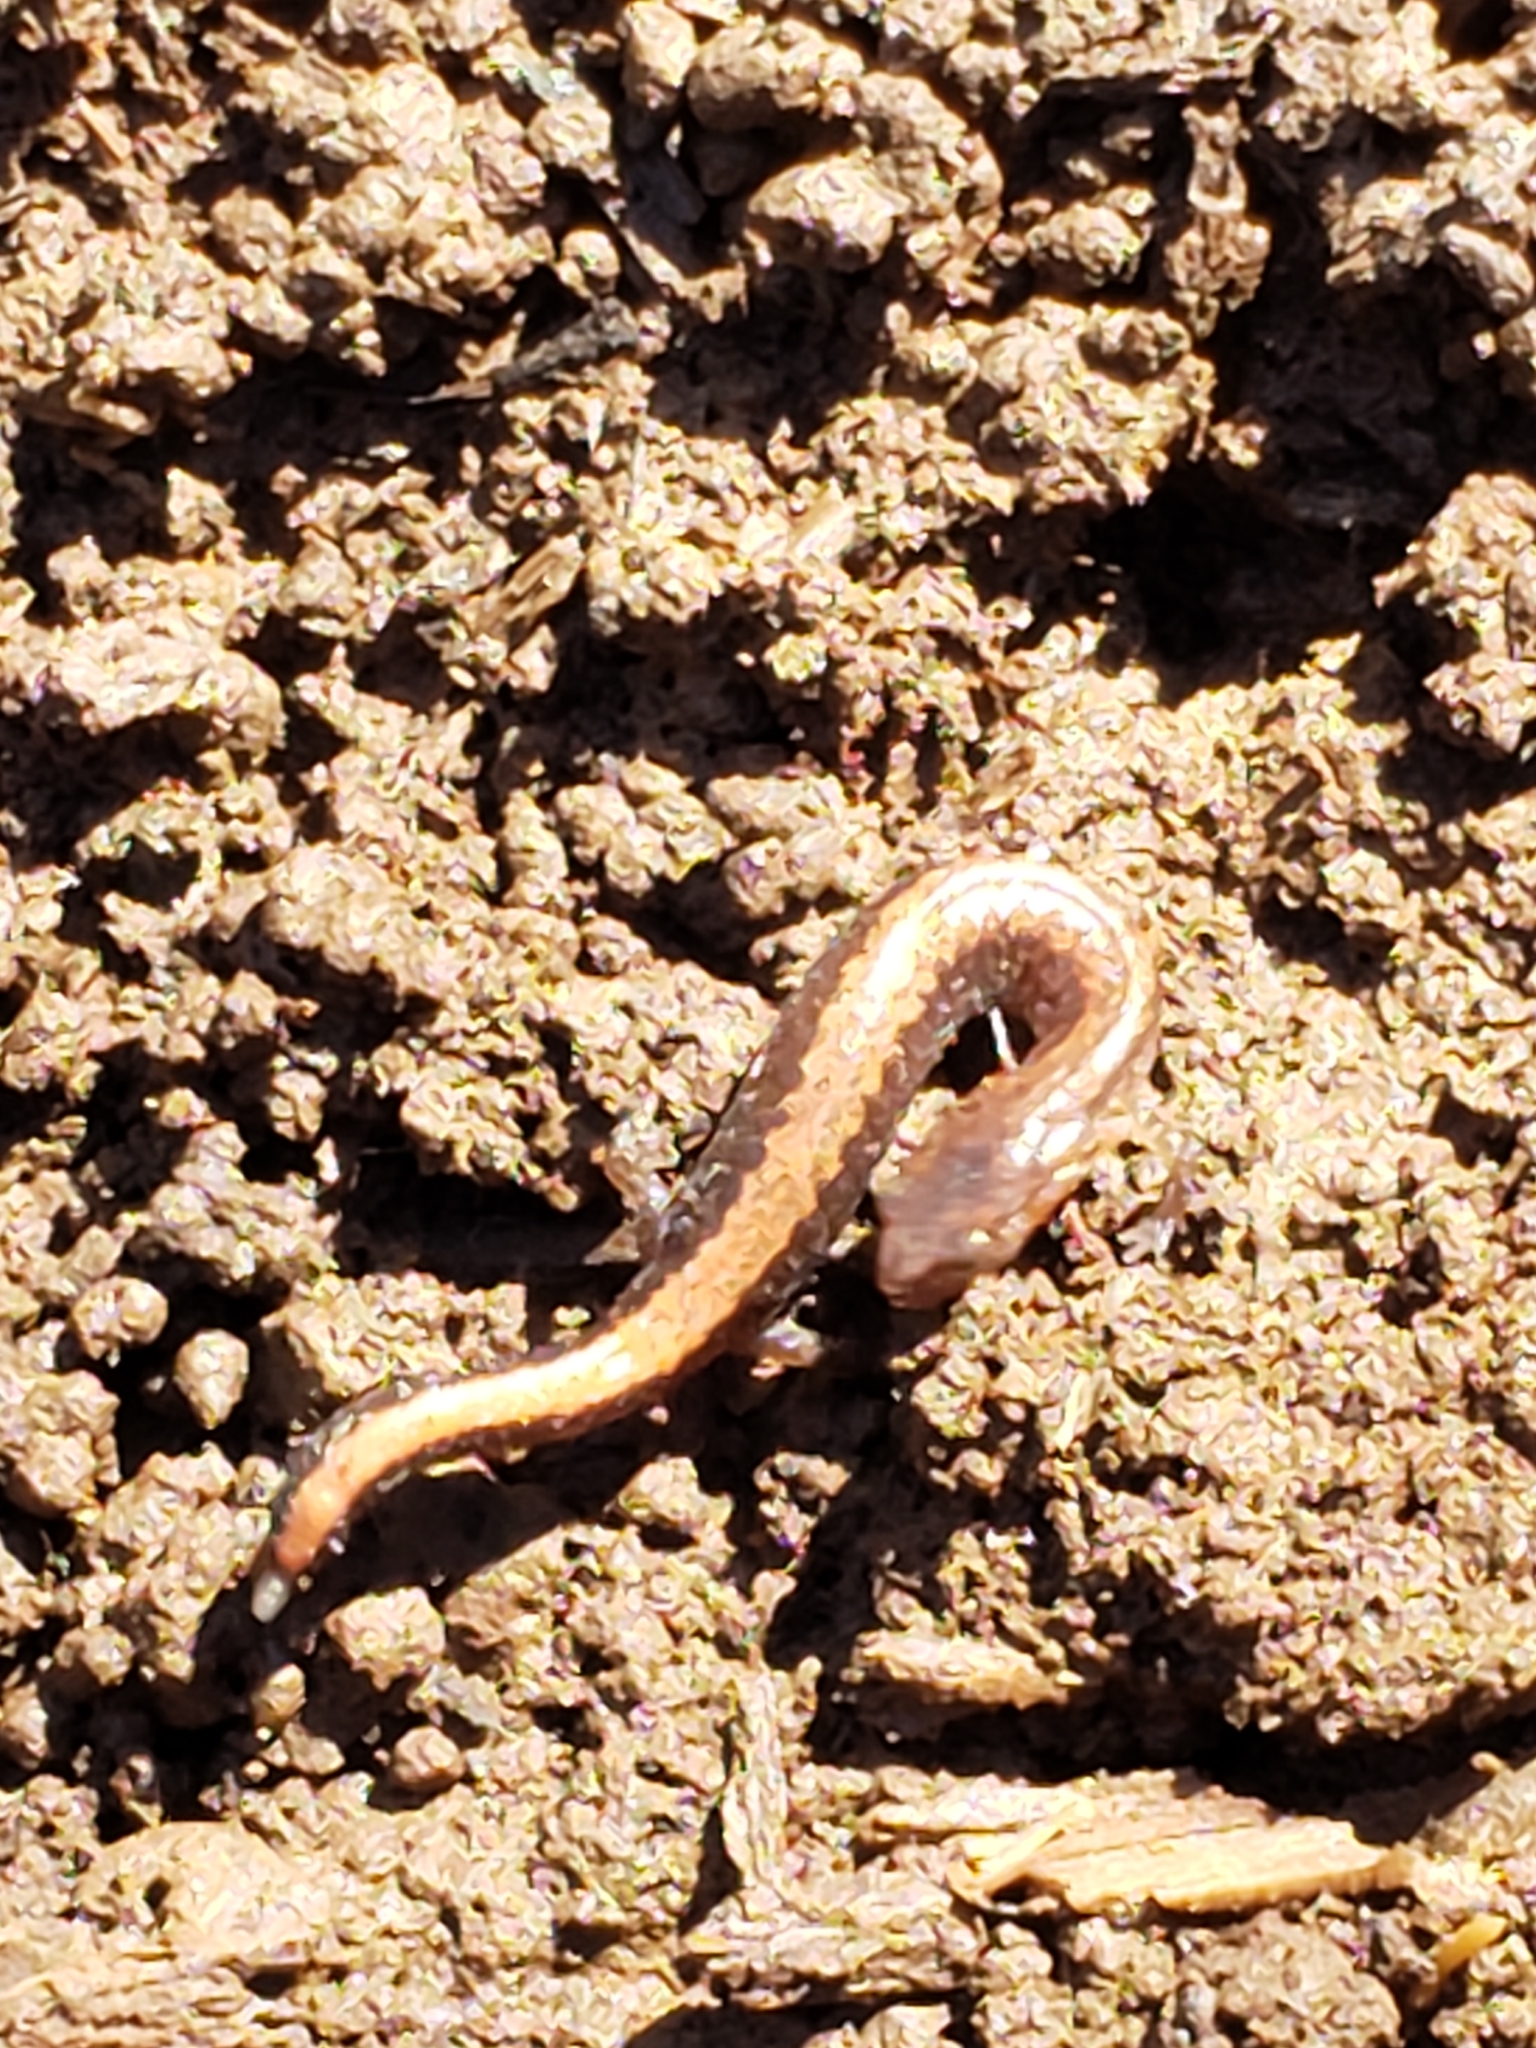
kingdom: Animalia
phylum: Chordata
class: Amphibia
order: Caudata
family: Plethodontidae
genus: Plethodon
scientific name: Plethodon cinereus
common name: Redback salamander
